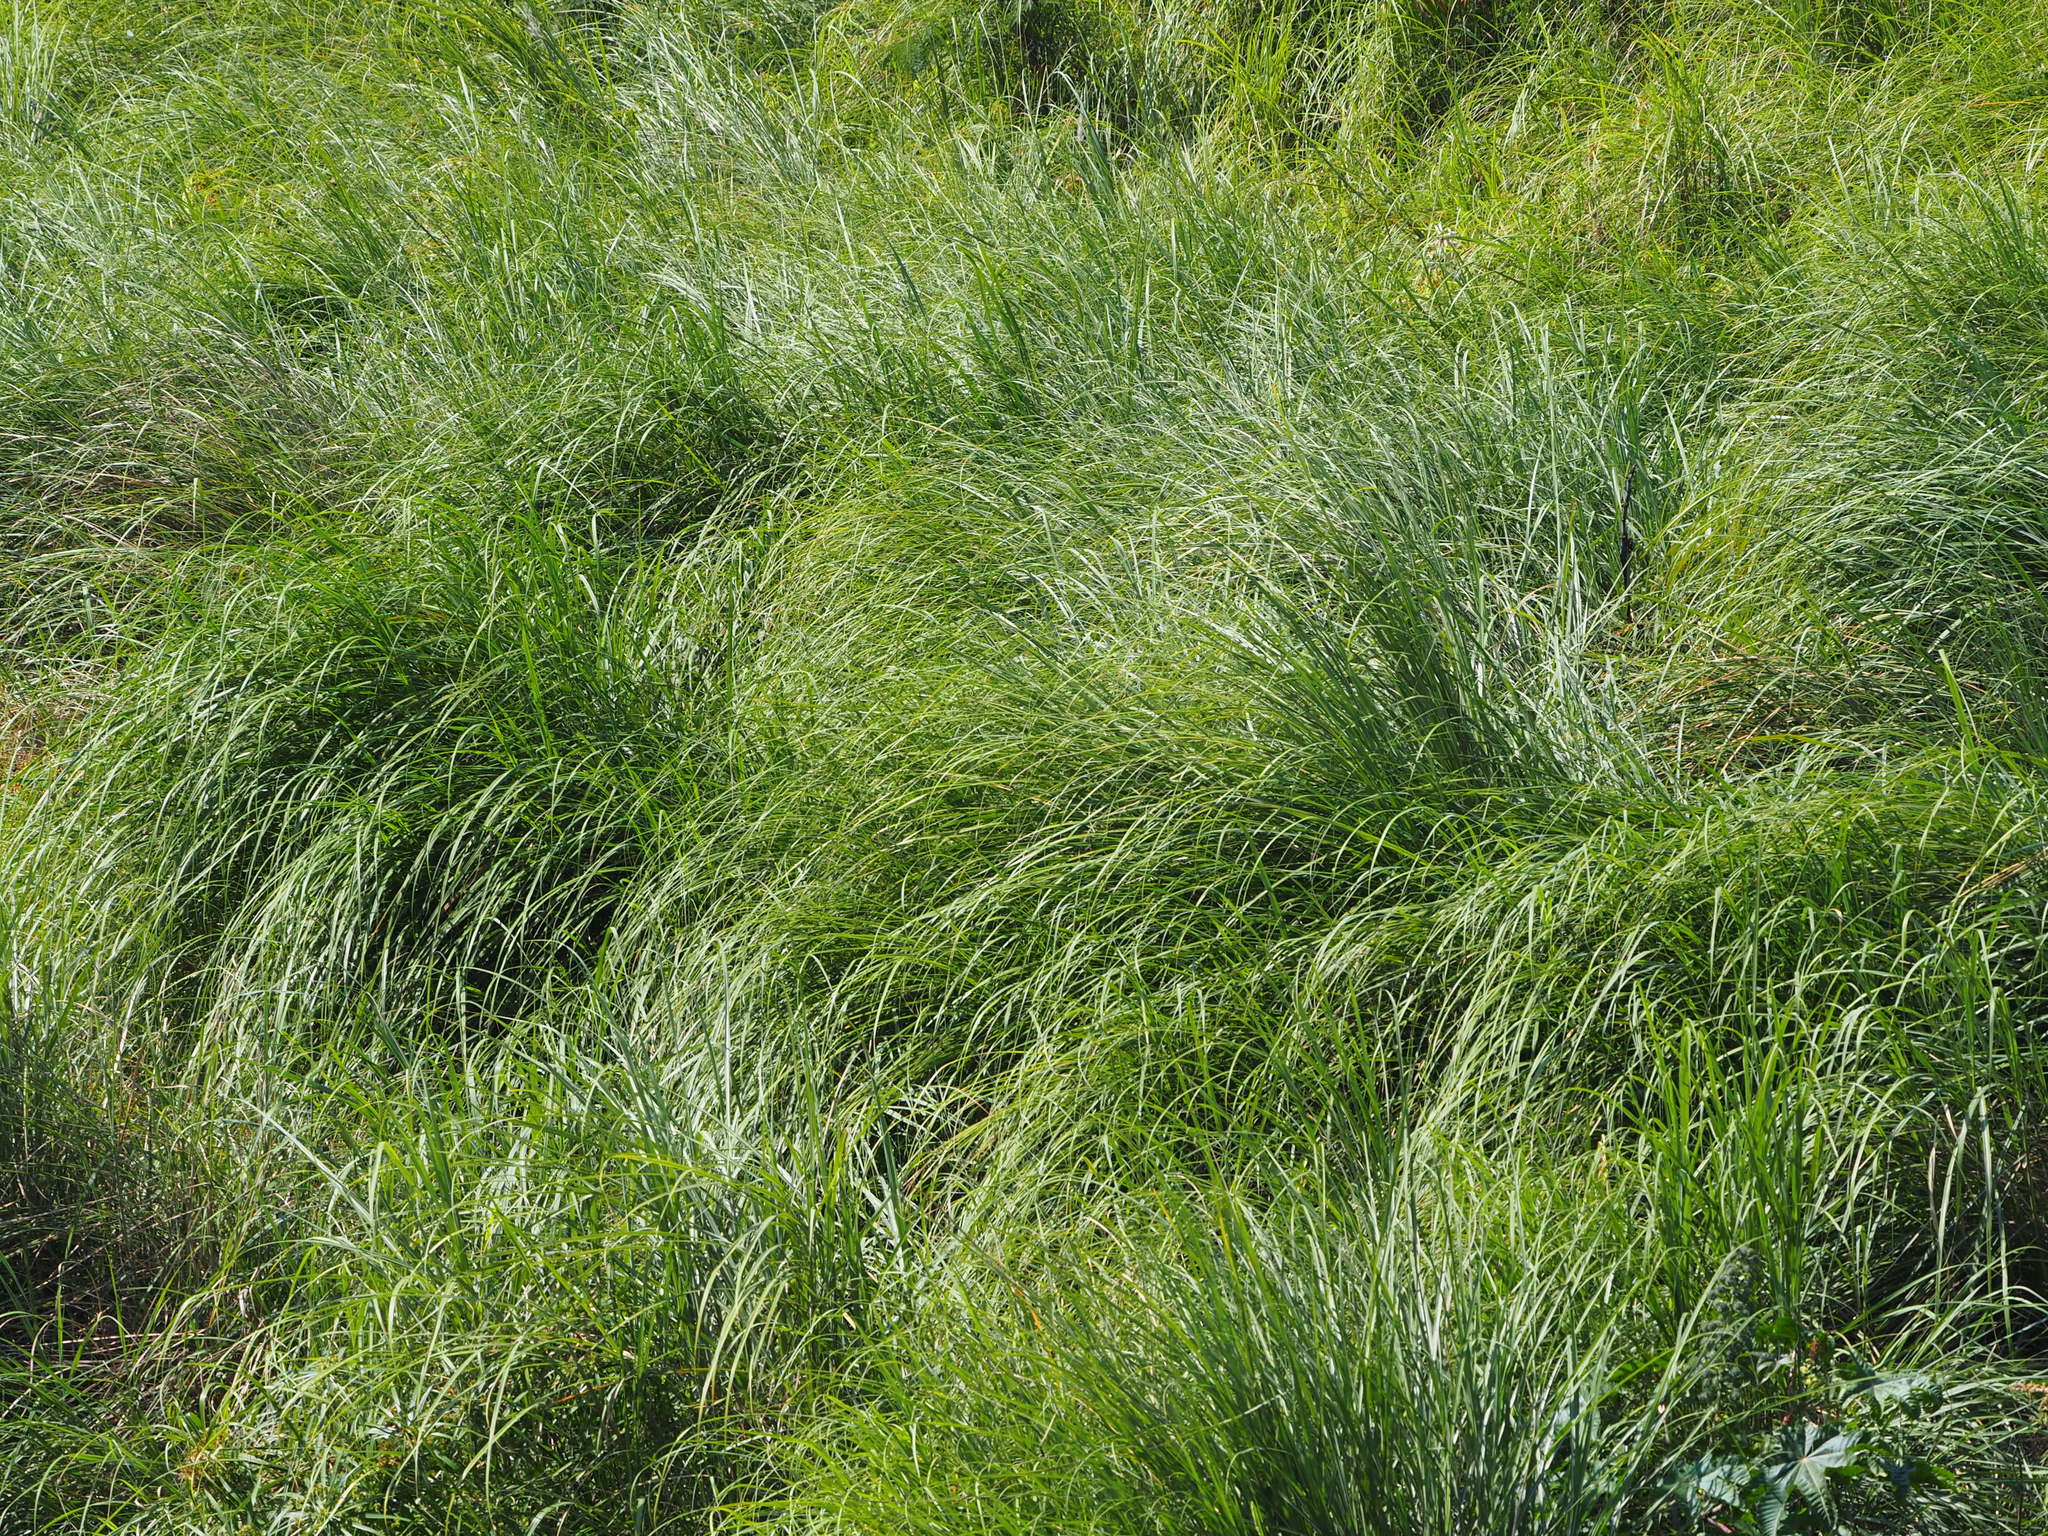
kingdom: Plantae
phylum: Tracheophyta
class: Liliopsida
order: Poales
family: Poaceae
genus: Saccharum
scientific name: Saccharum spontaneum
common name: Wild sugarcane
